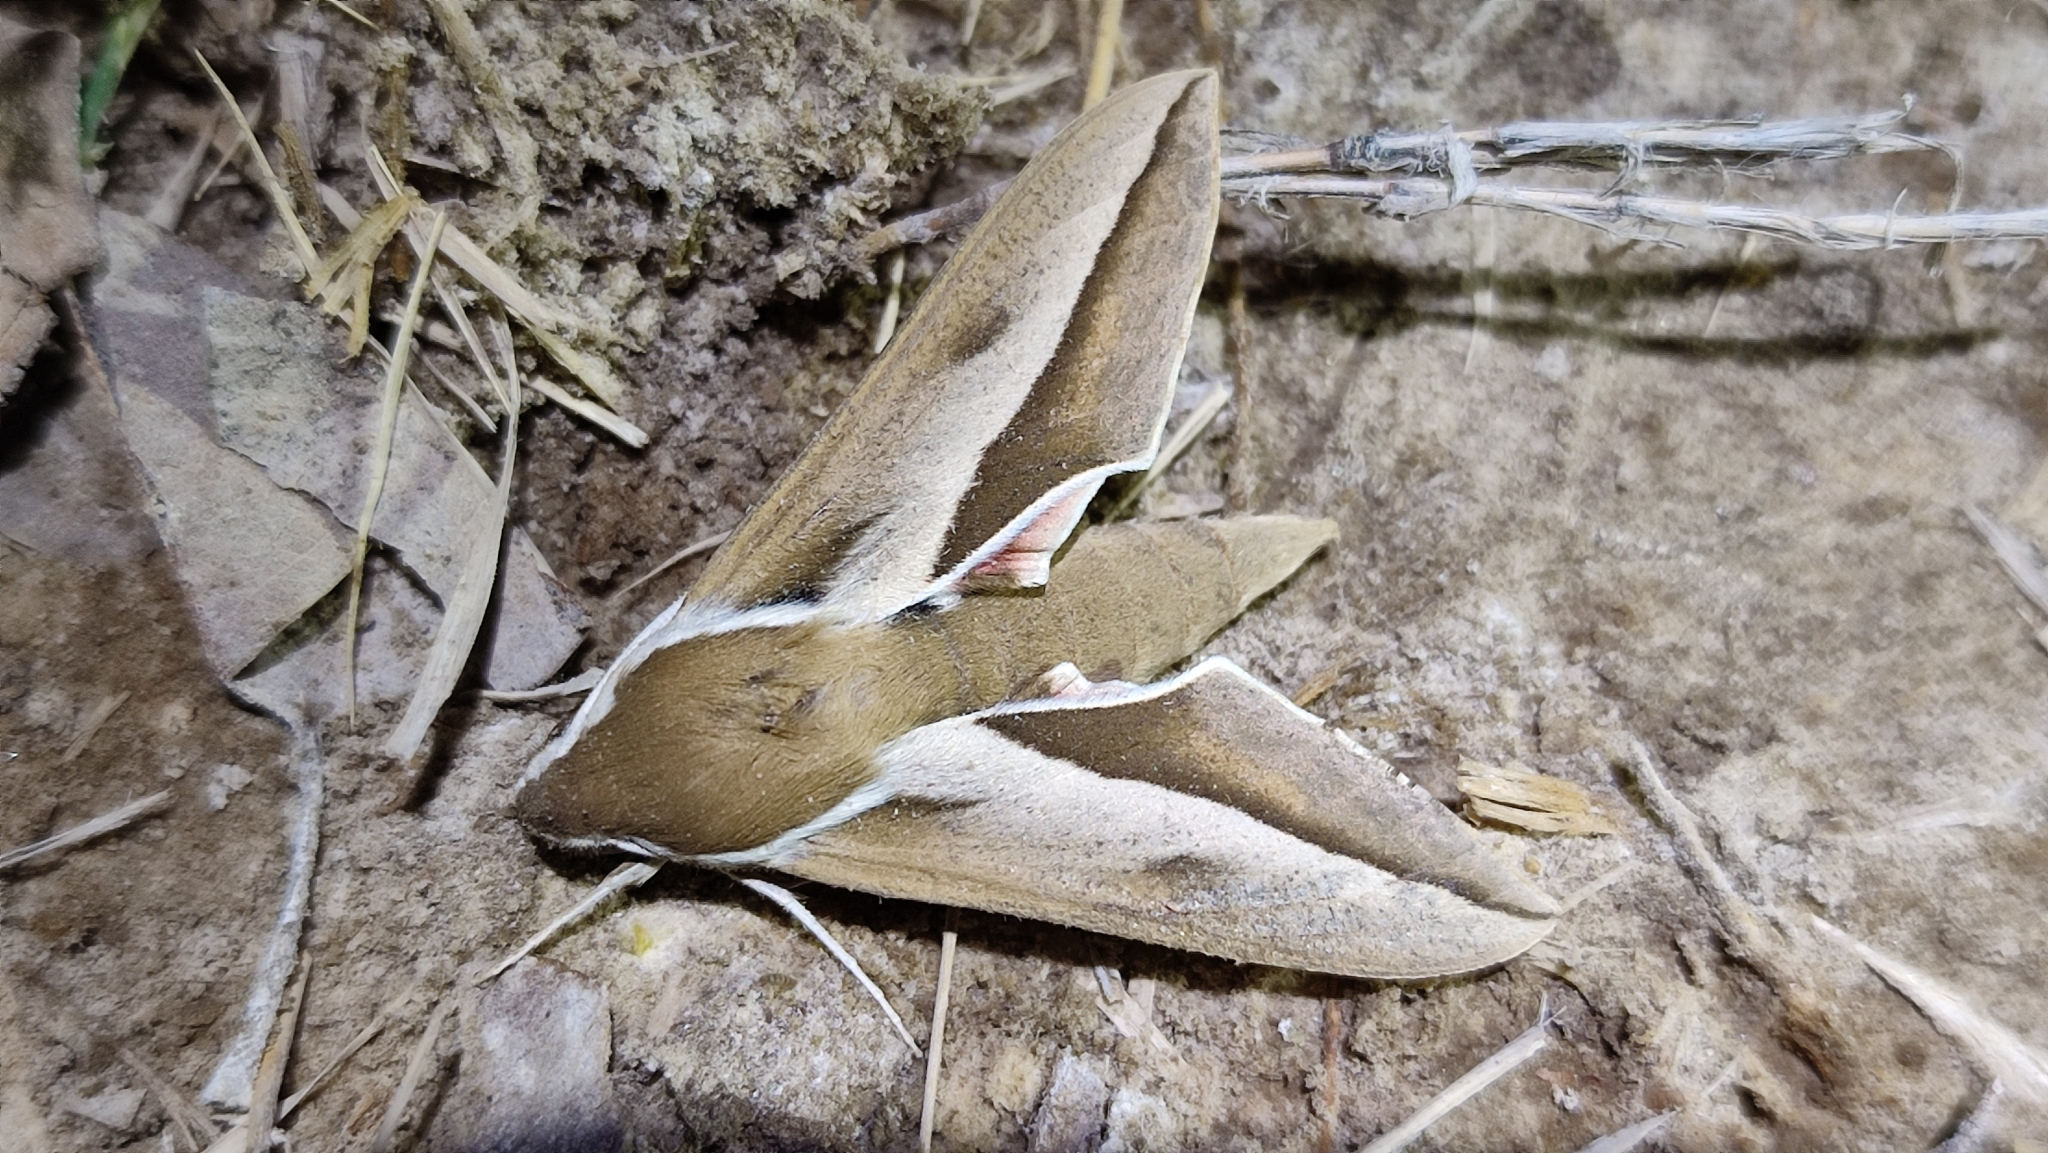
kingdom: Animalia
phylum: Arthropoda
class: Insecta
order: Lepidoptera
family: Sphingidae
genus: Hyles
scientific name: Hyles hippophaes
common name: Seathorn hawk-moth
